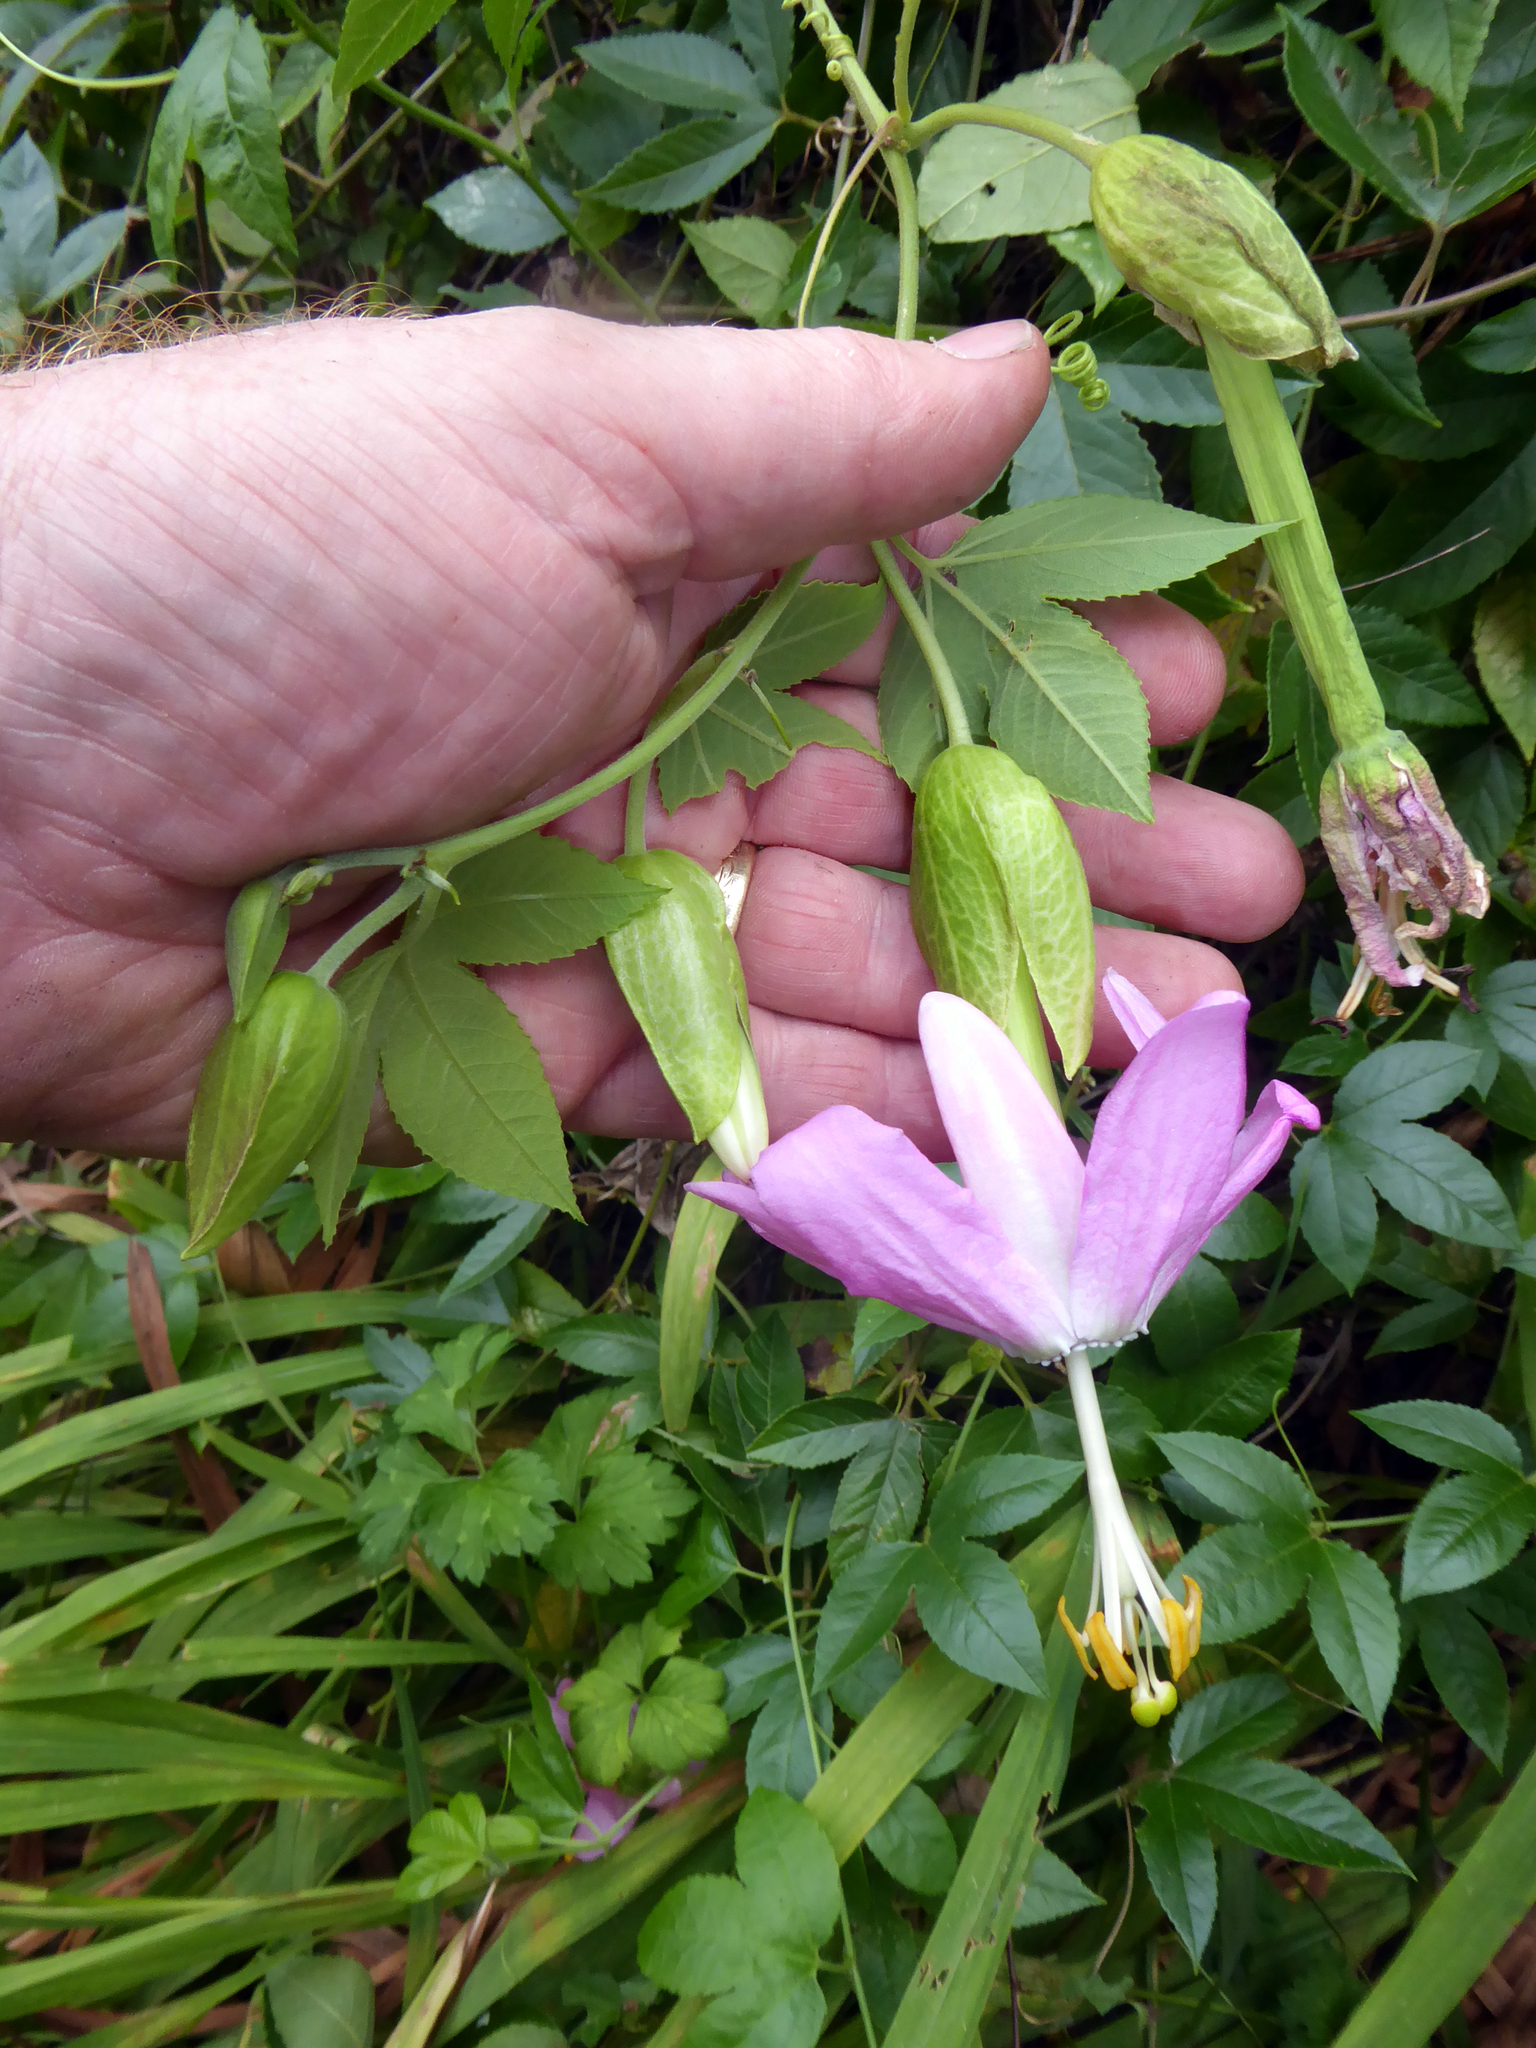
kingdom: Plantae
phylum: Tracheophyta
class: Magnoliopsida
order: Malpighiales
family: Passifloraceae
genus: Passiflora
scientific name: Passiflora tarminiana
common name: Banana poka
